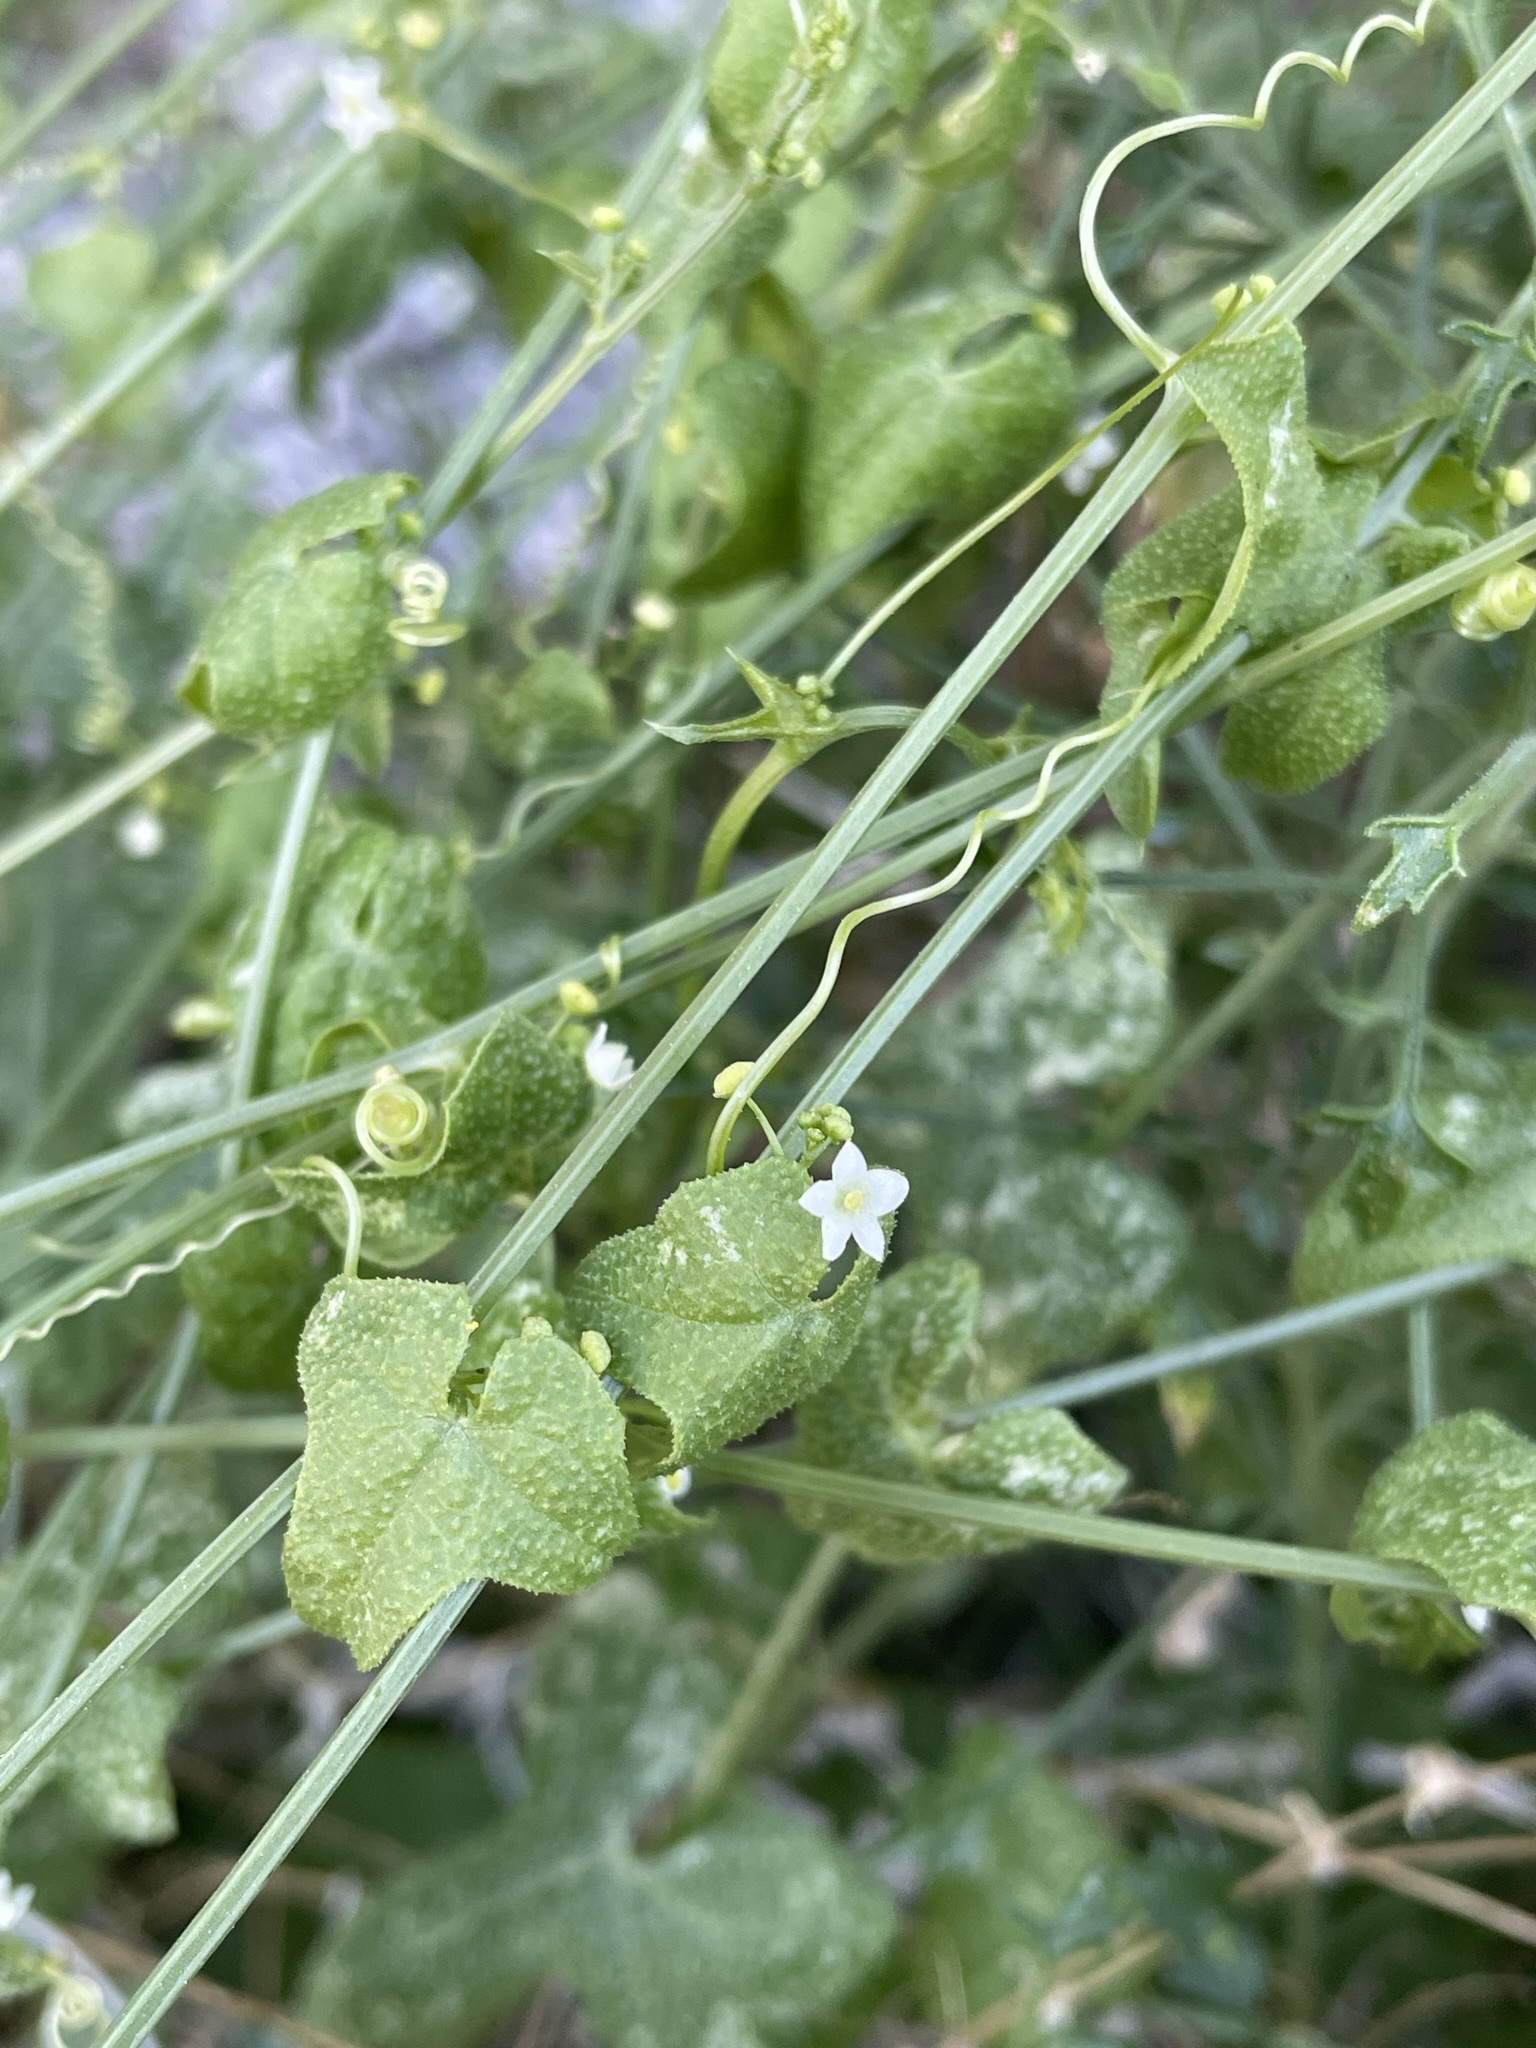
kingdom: Plantae
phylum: Tracheophyta
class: Magnoliopsida
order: Cucurbitales
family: Cucurbitaceae
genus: Echinopepon
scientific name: Echinopepon bigelovii
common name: Desert starvine
